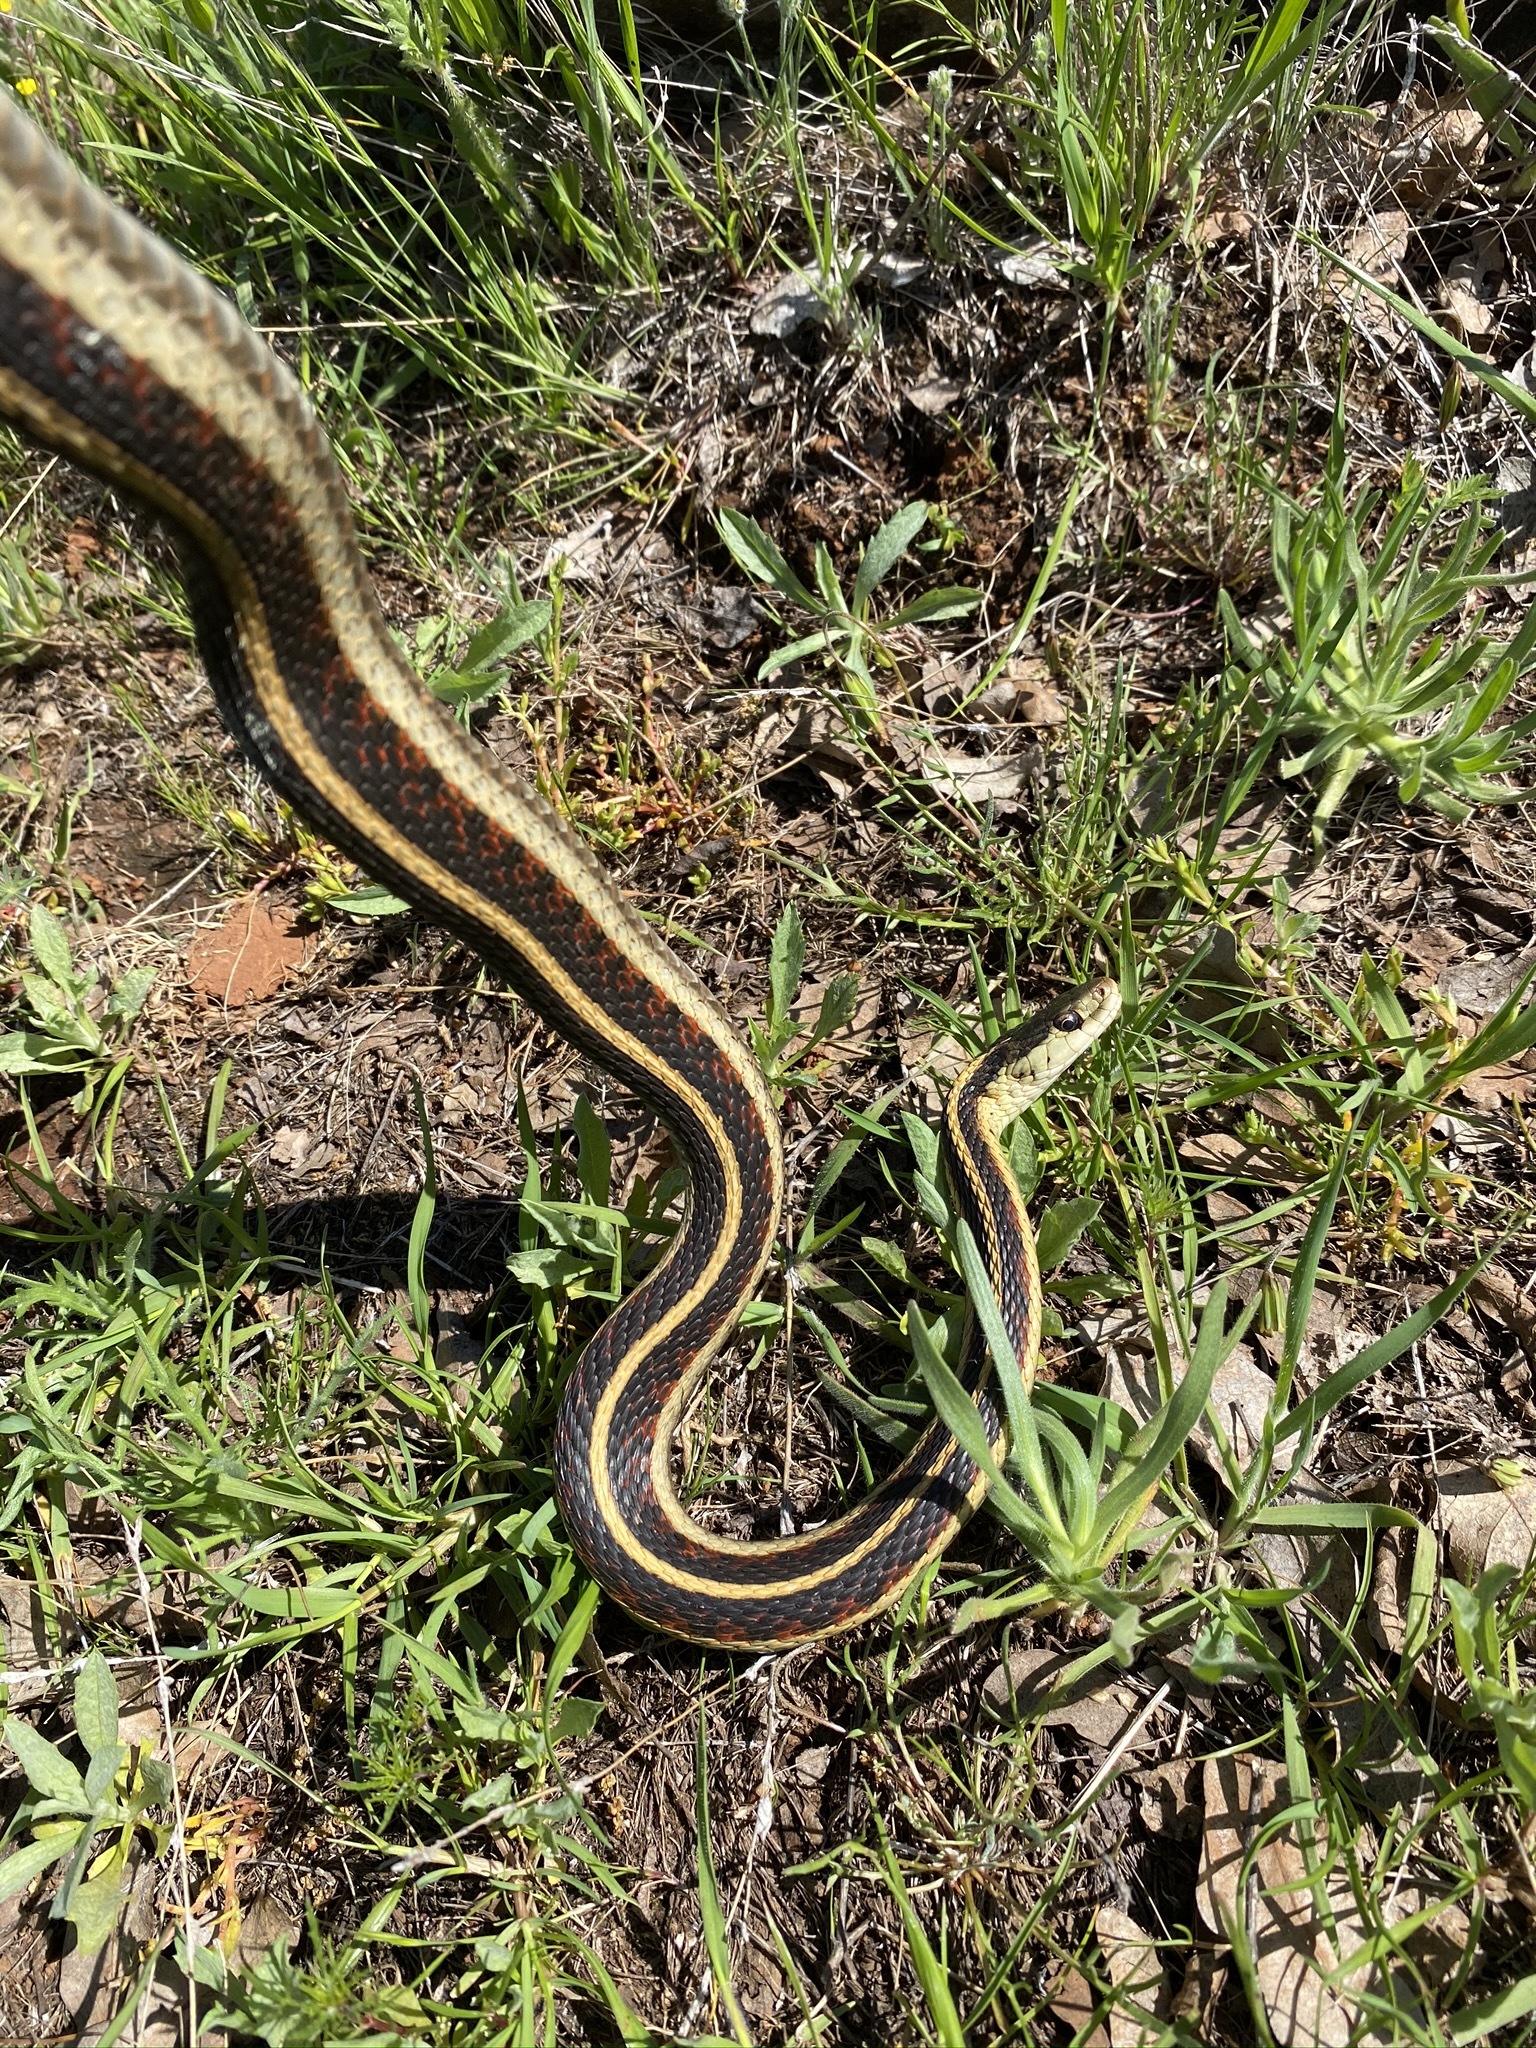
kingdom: Animalia
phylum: Chordata
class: Squamata
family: Colubridae
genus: Thamnophis
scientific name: Thamnophis sirtalis
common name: Common garter snake
